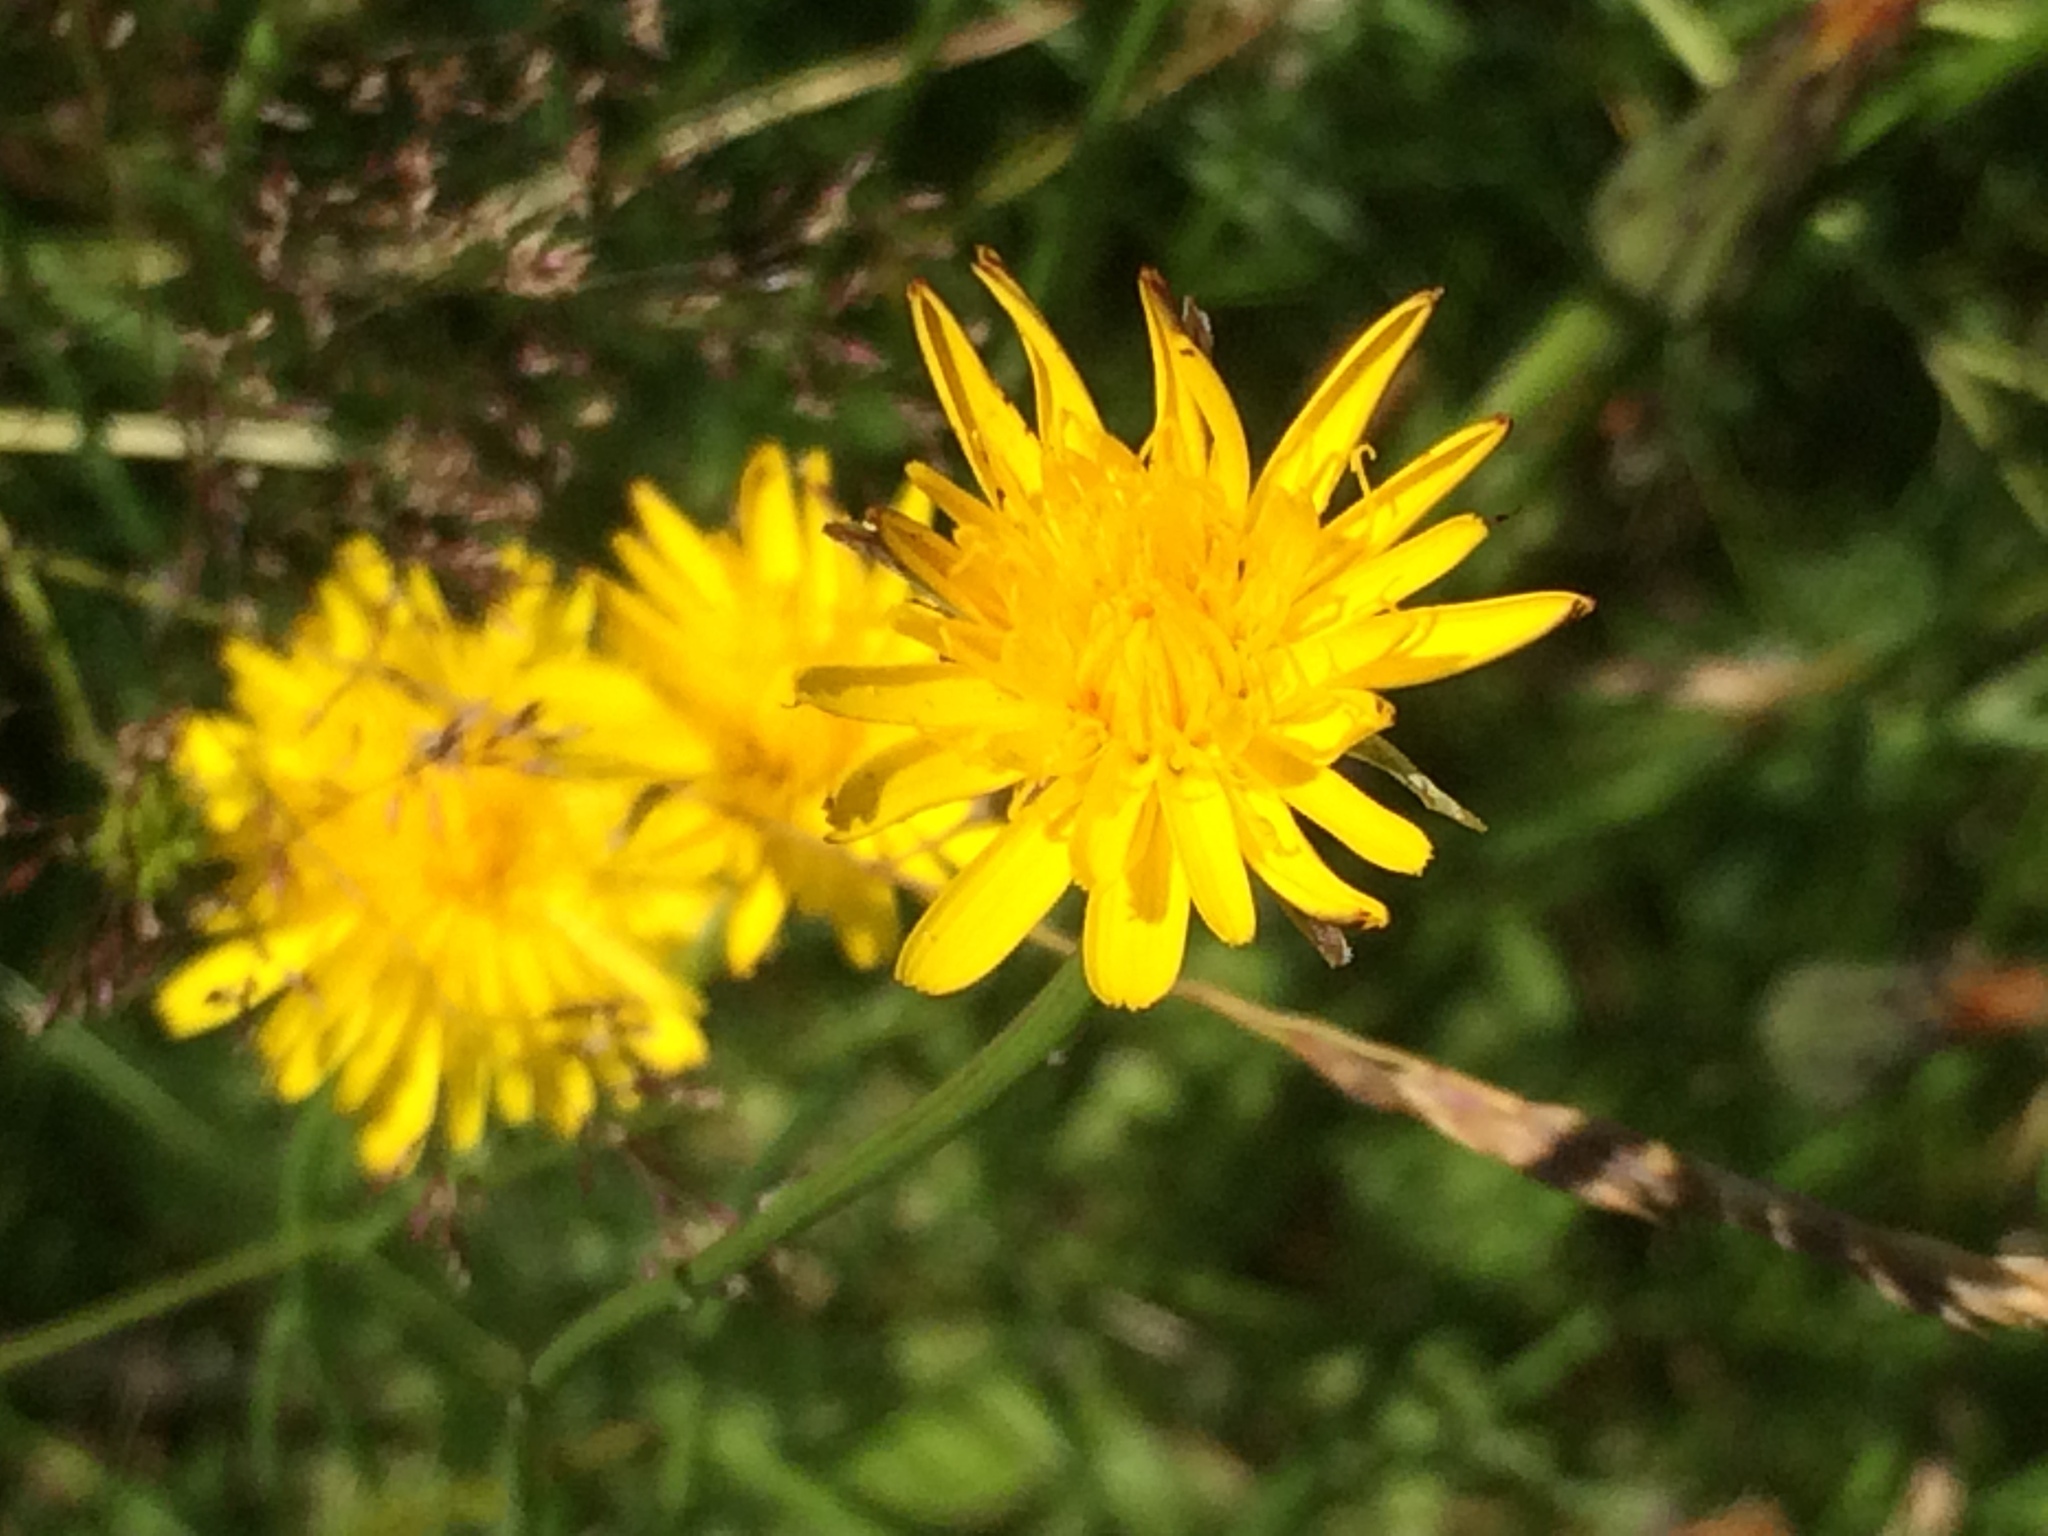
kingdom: Plantae
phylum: Tracheophyta
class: Magnoliopsida
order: Asterales
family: Asteraceae
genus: Hypochaeris
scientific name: Hypochaeris radicata
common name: Flatweed
